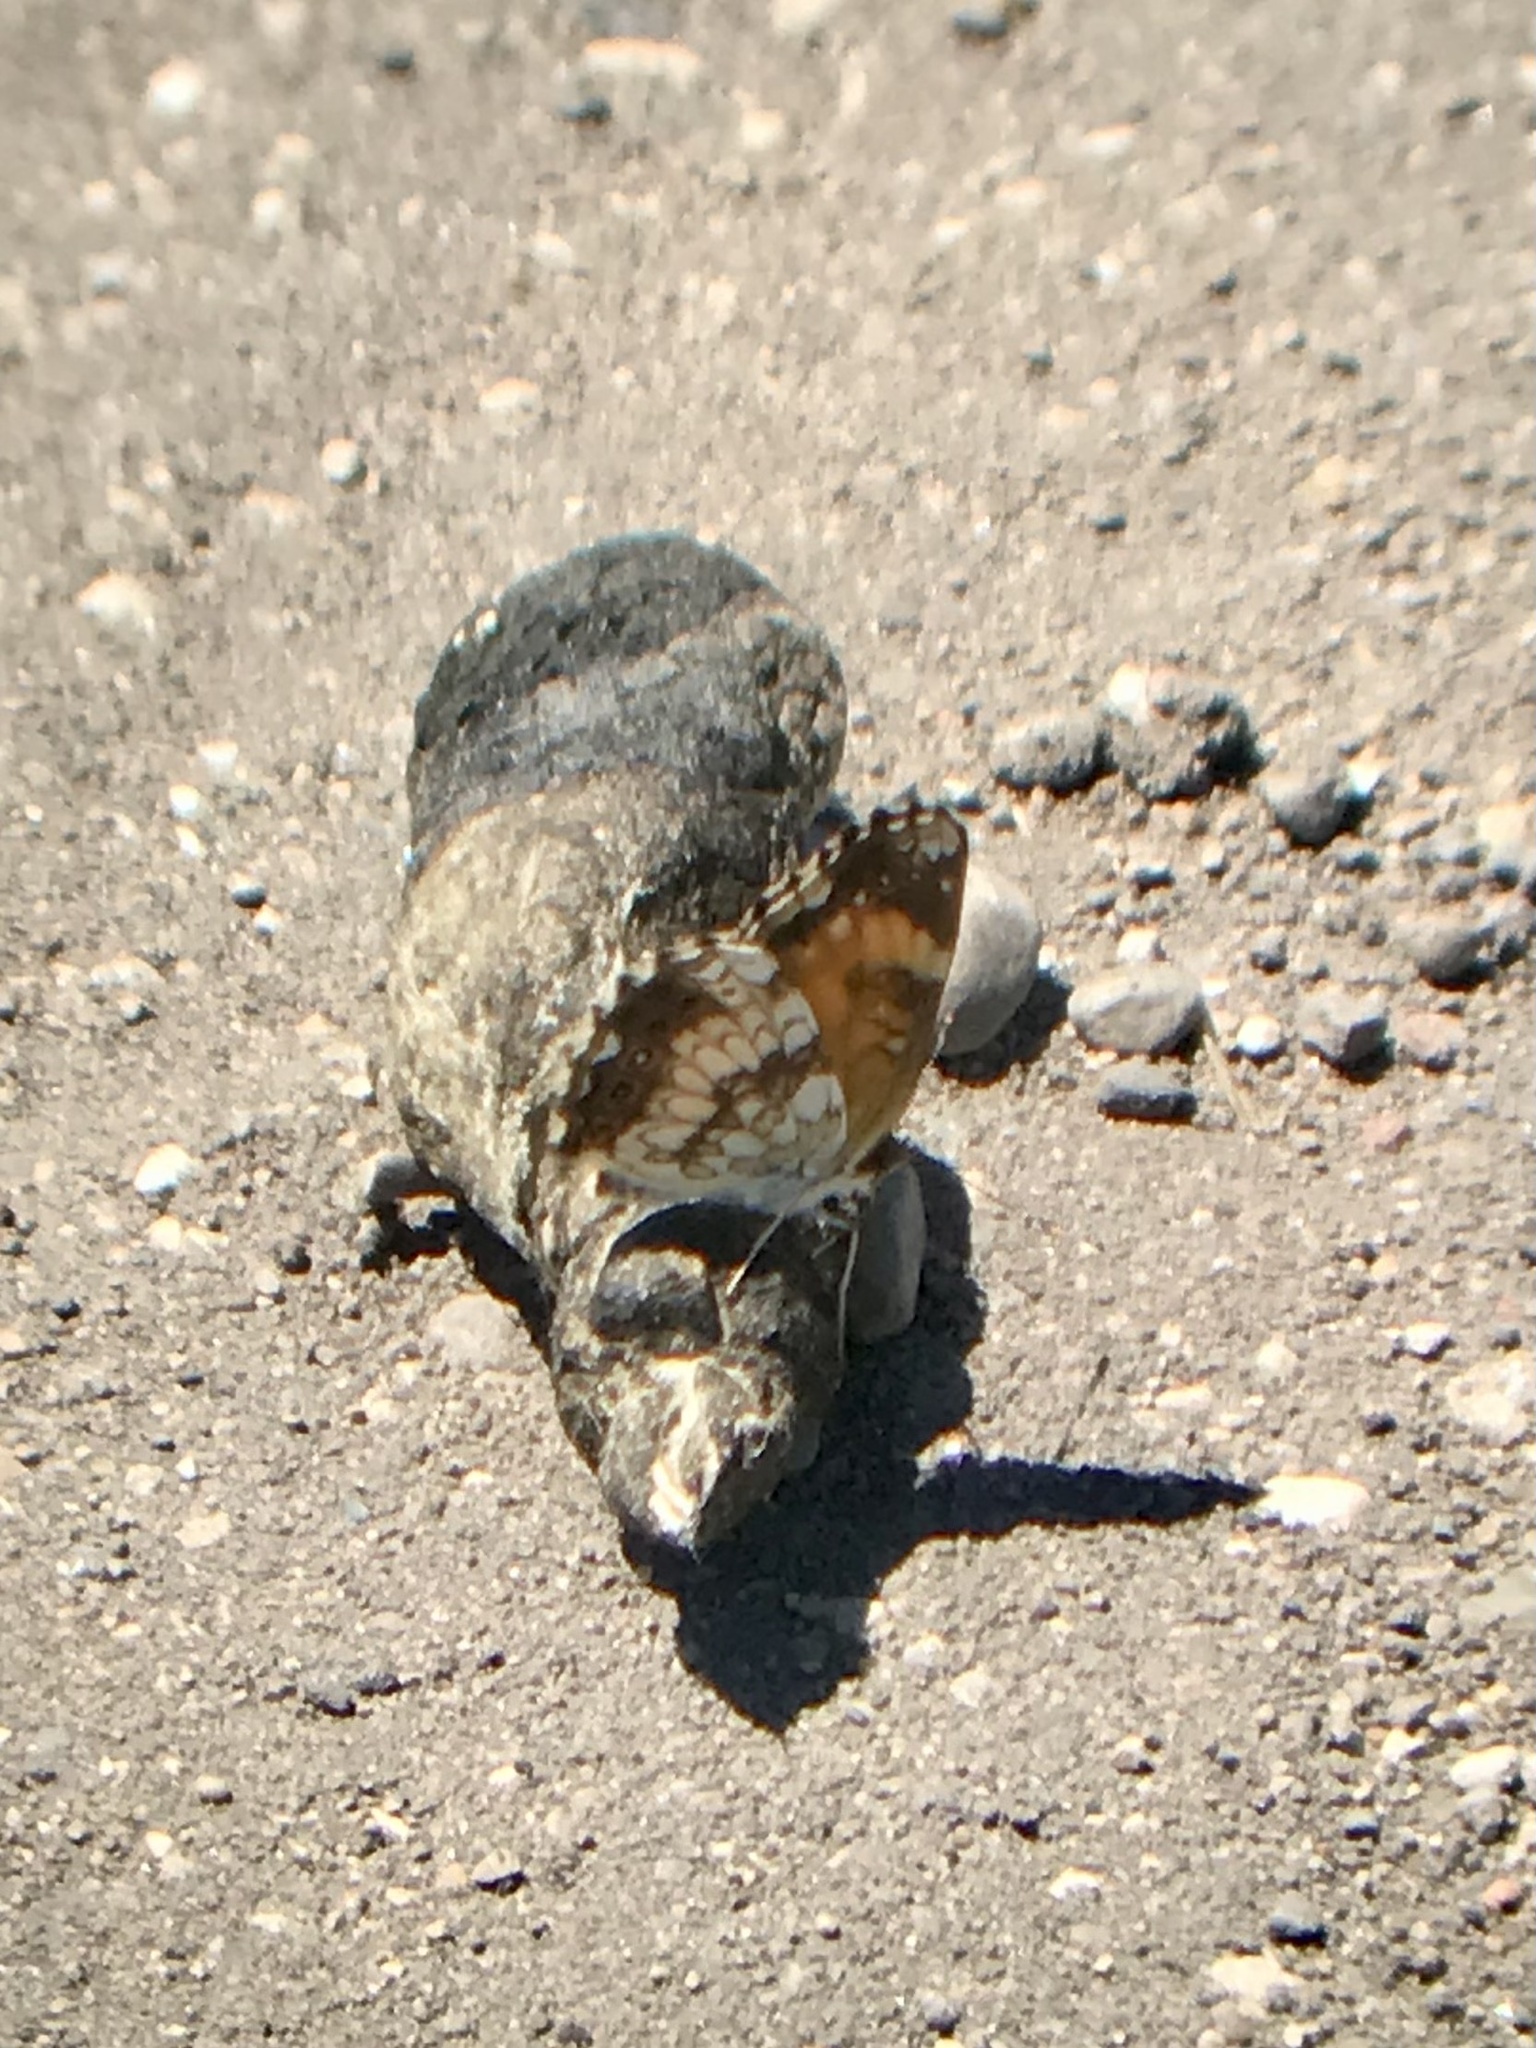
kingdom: Animalia
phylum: Arthropoda
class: Insecta
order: Lepidoptera
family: Nymphalidae
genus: Chlosyne
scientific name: Chlosyne nycteis
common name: Silvery checkerspot
